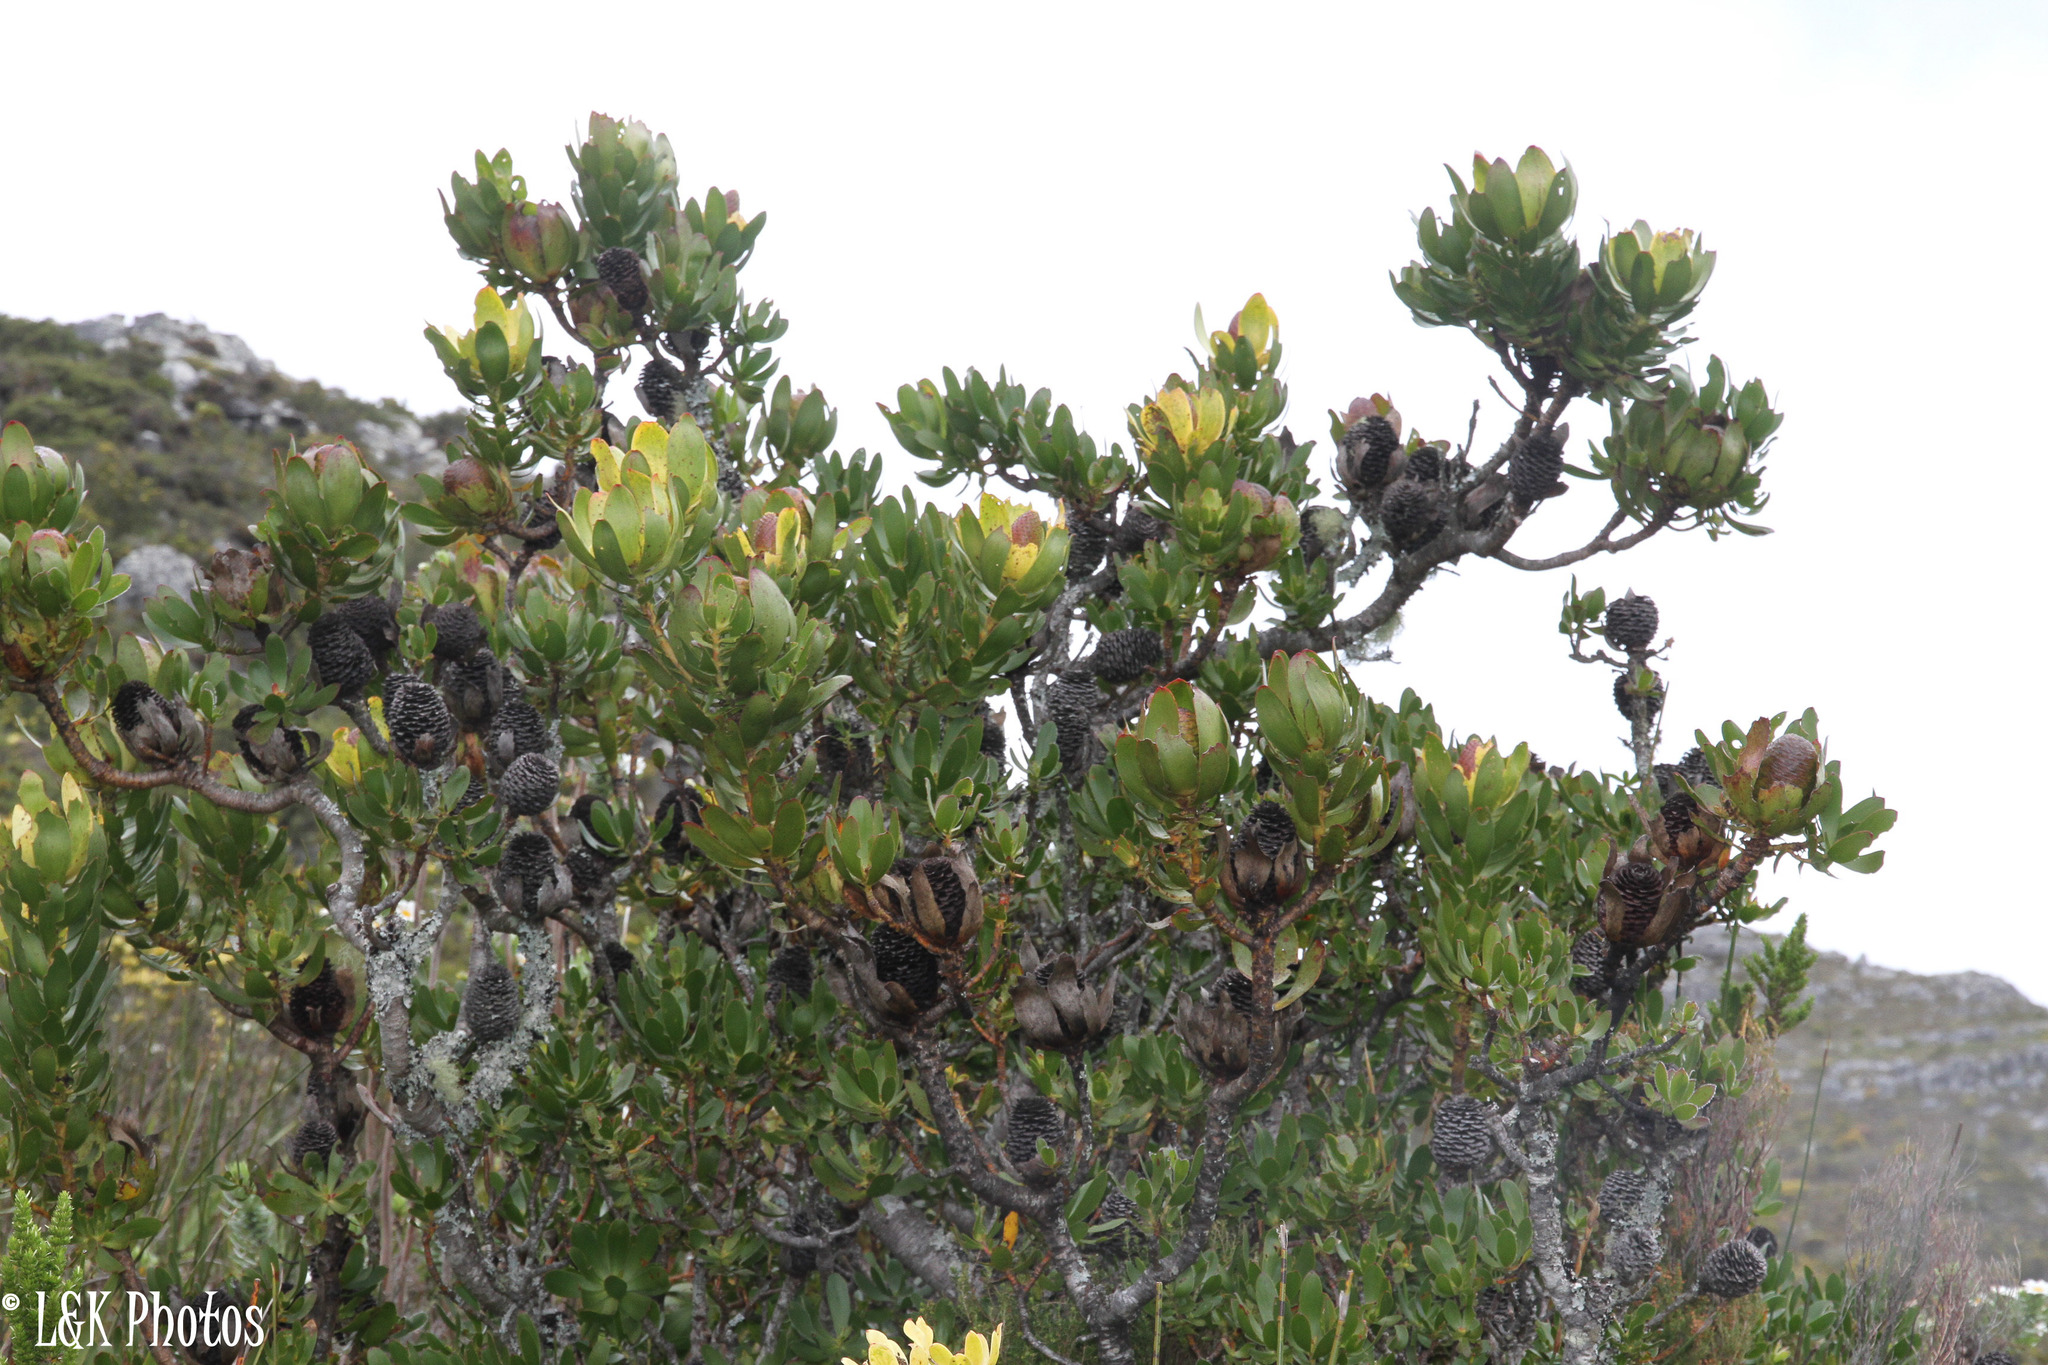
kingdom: Plantae
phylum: Tracheophyta
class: Magnoliopsida
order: Proteales
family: Proteaceae
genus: Leucadendron
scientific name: Leucadendron strobilinum
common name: Mountain rose
